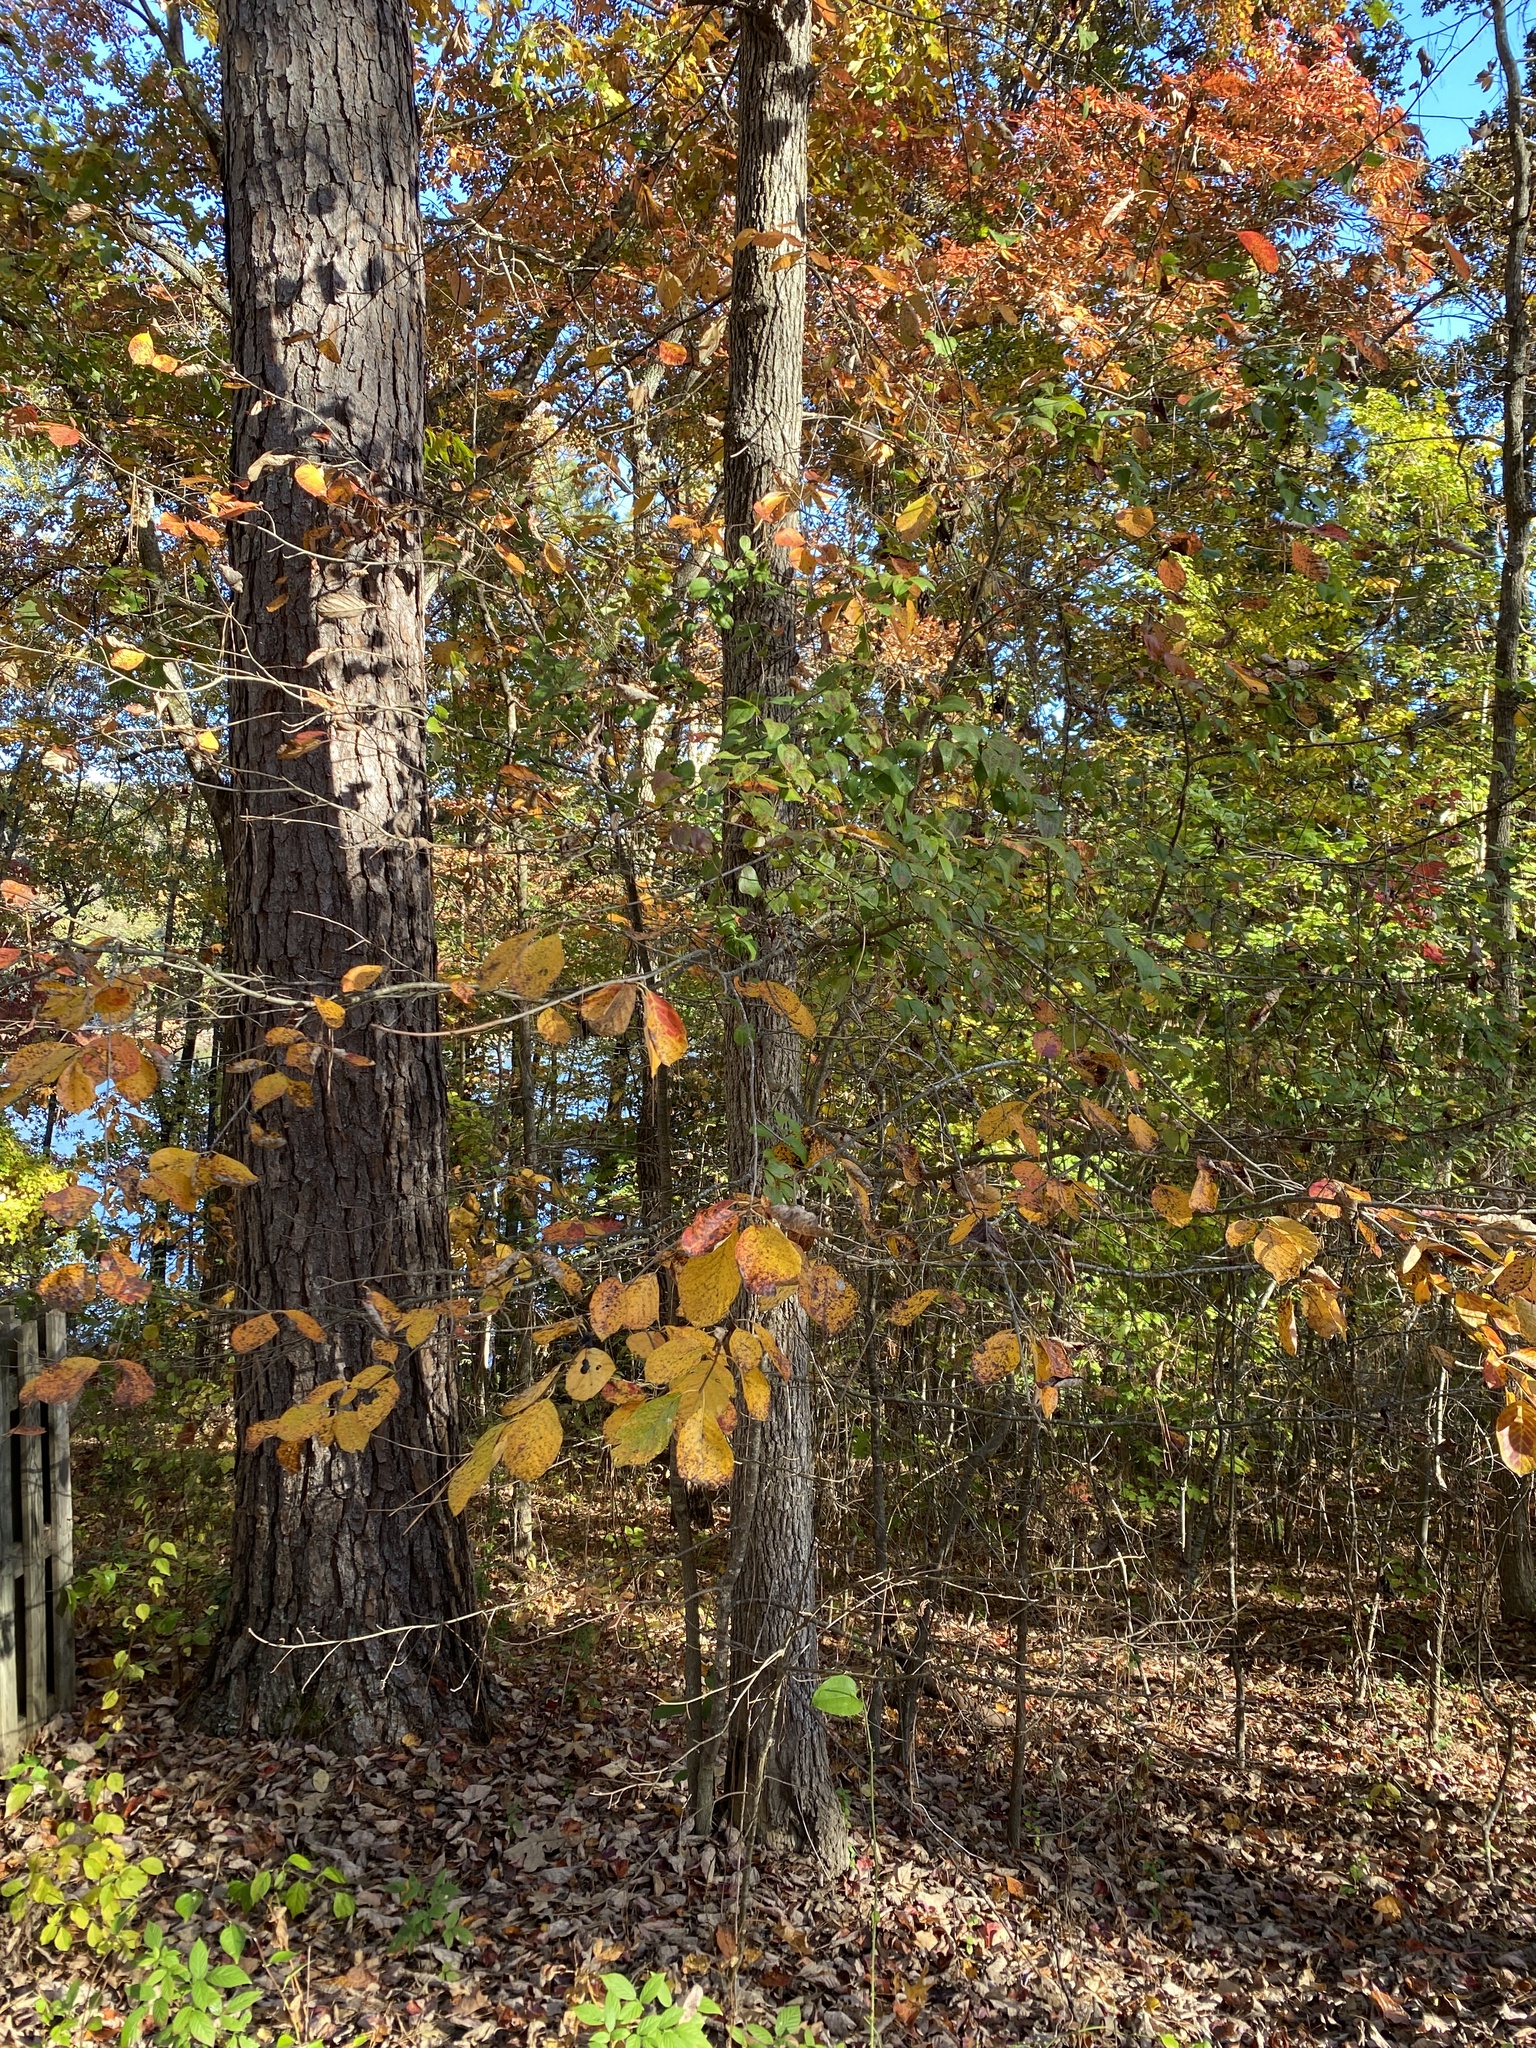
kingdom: Plantae
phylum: Tracheophyta
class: Magnoliopsida
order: Cornales
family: Nyssaceae
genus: Nyssa
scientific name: Nyssa sylvatica
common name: Black tupelo
